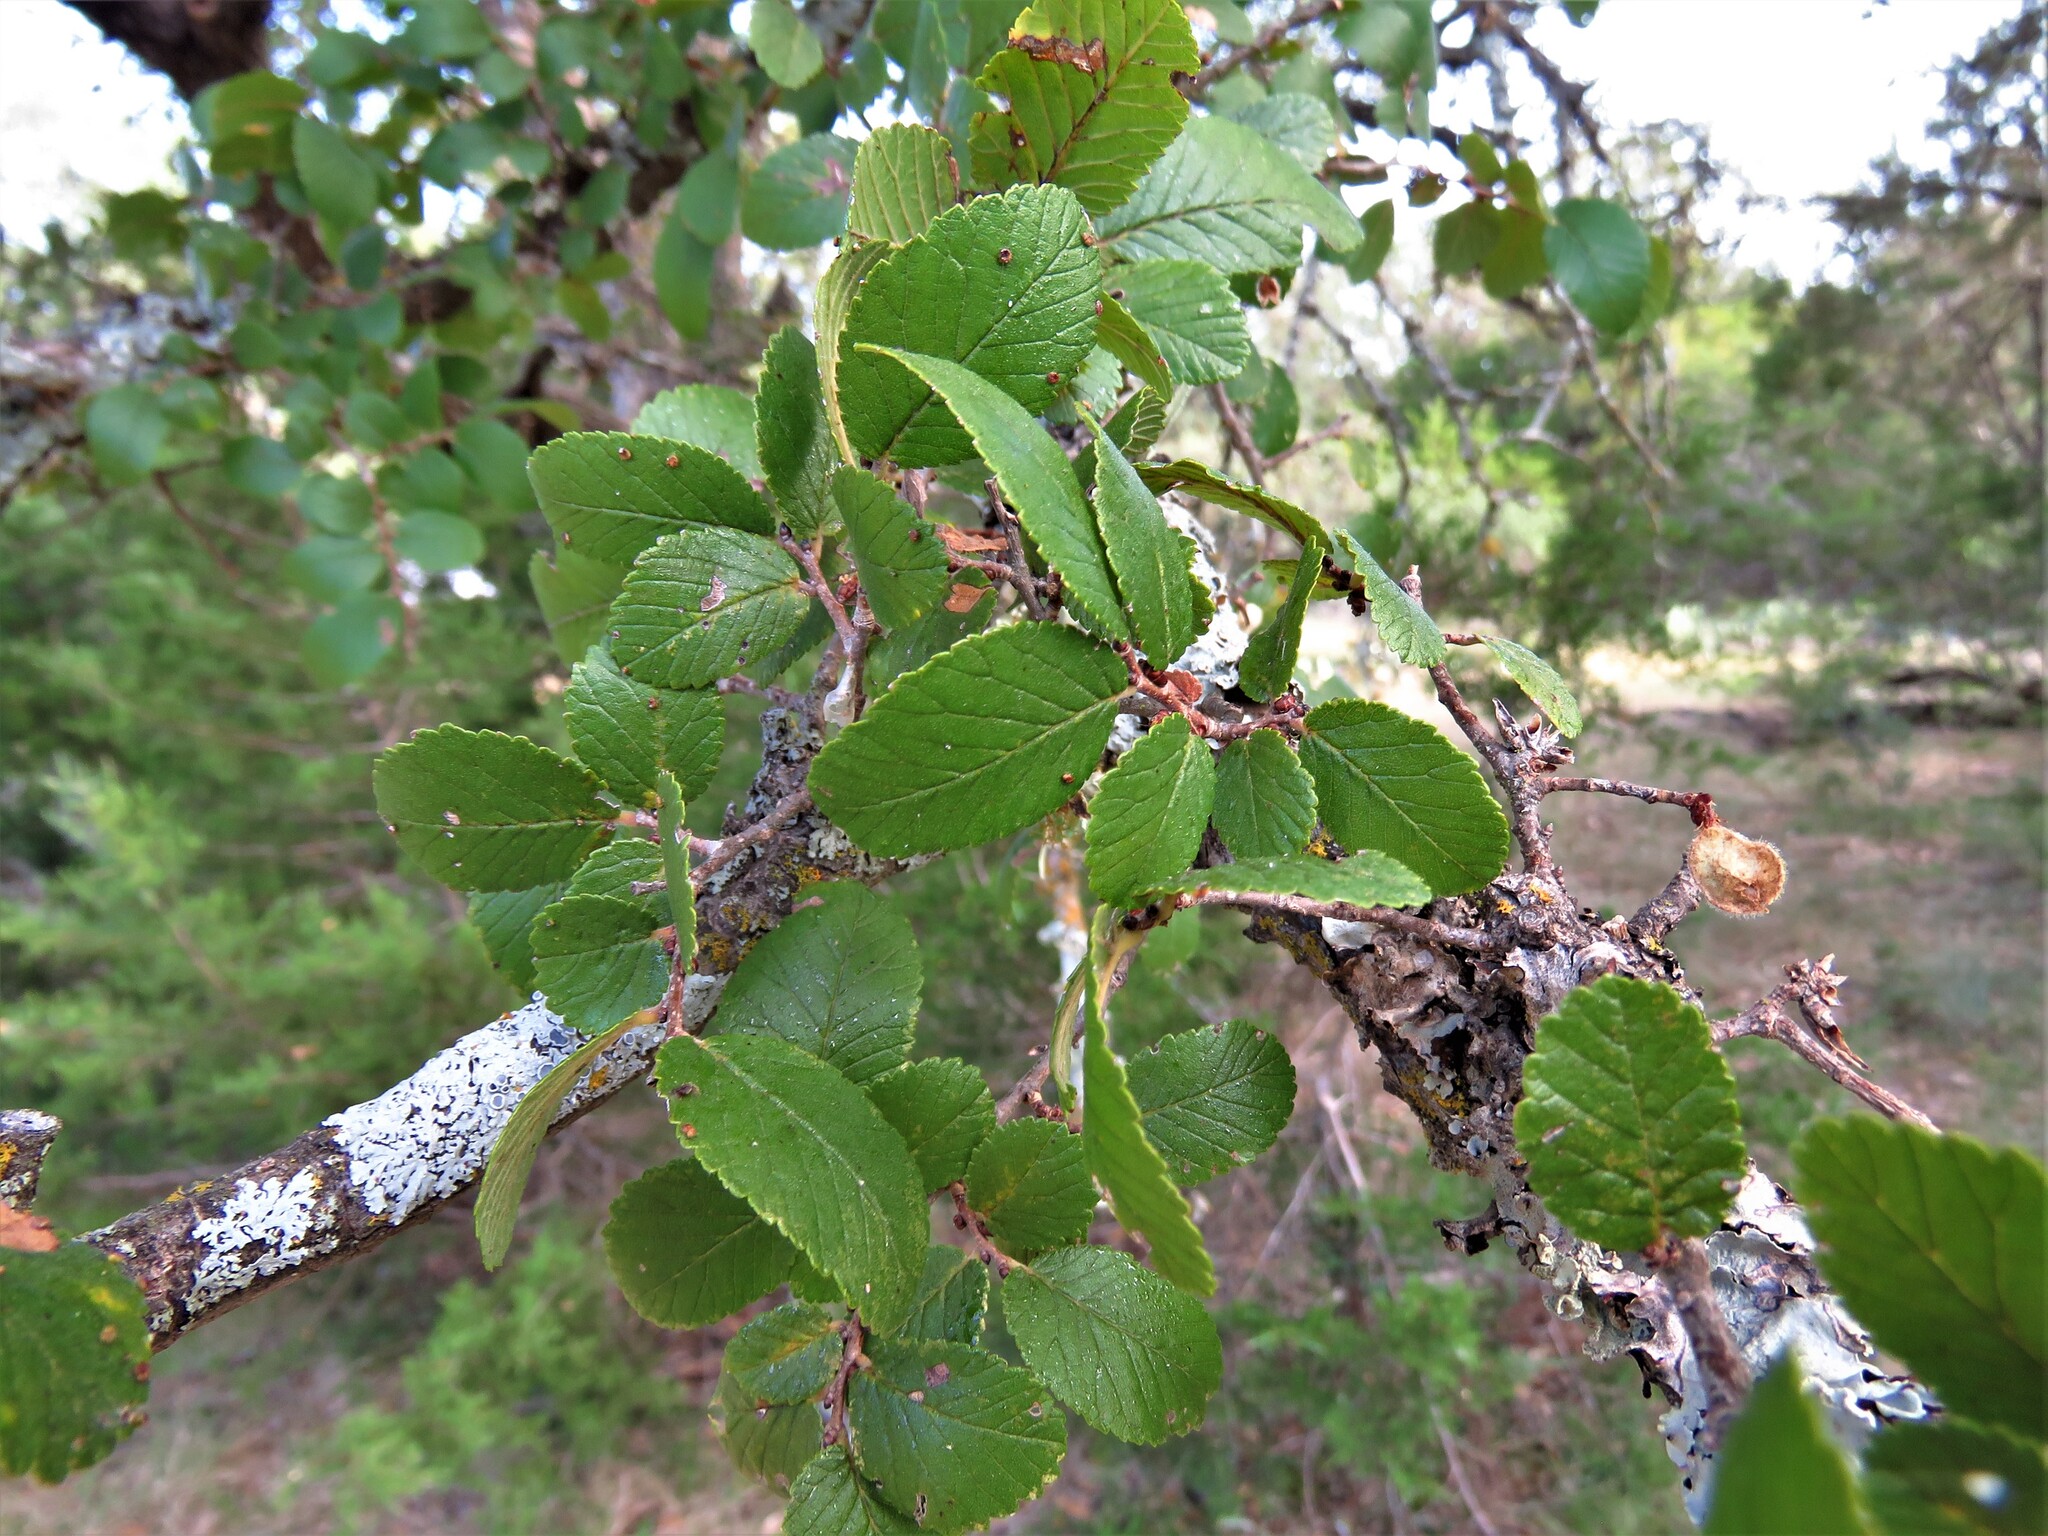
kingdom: Plantae
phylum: Tracheophyta
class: Magnoliopsida
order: Rosales
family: Ulmaceae
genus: Ulmus
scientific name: Ulmus crassifolia
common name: Basket elm
